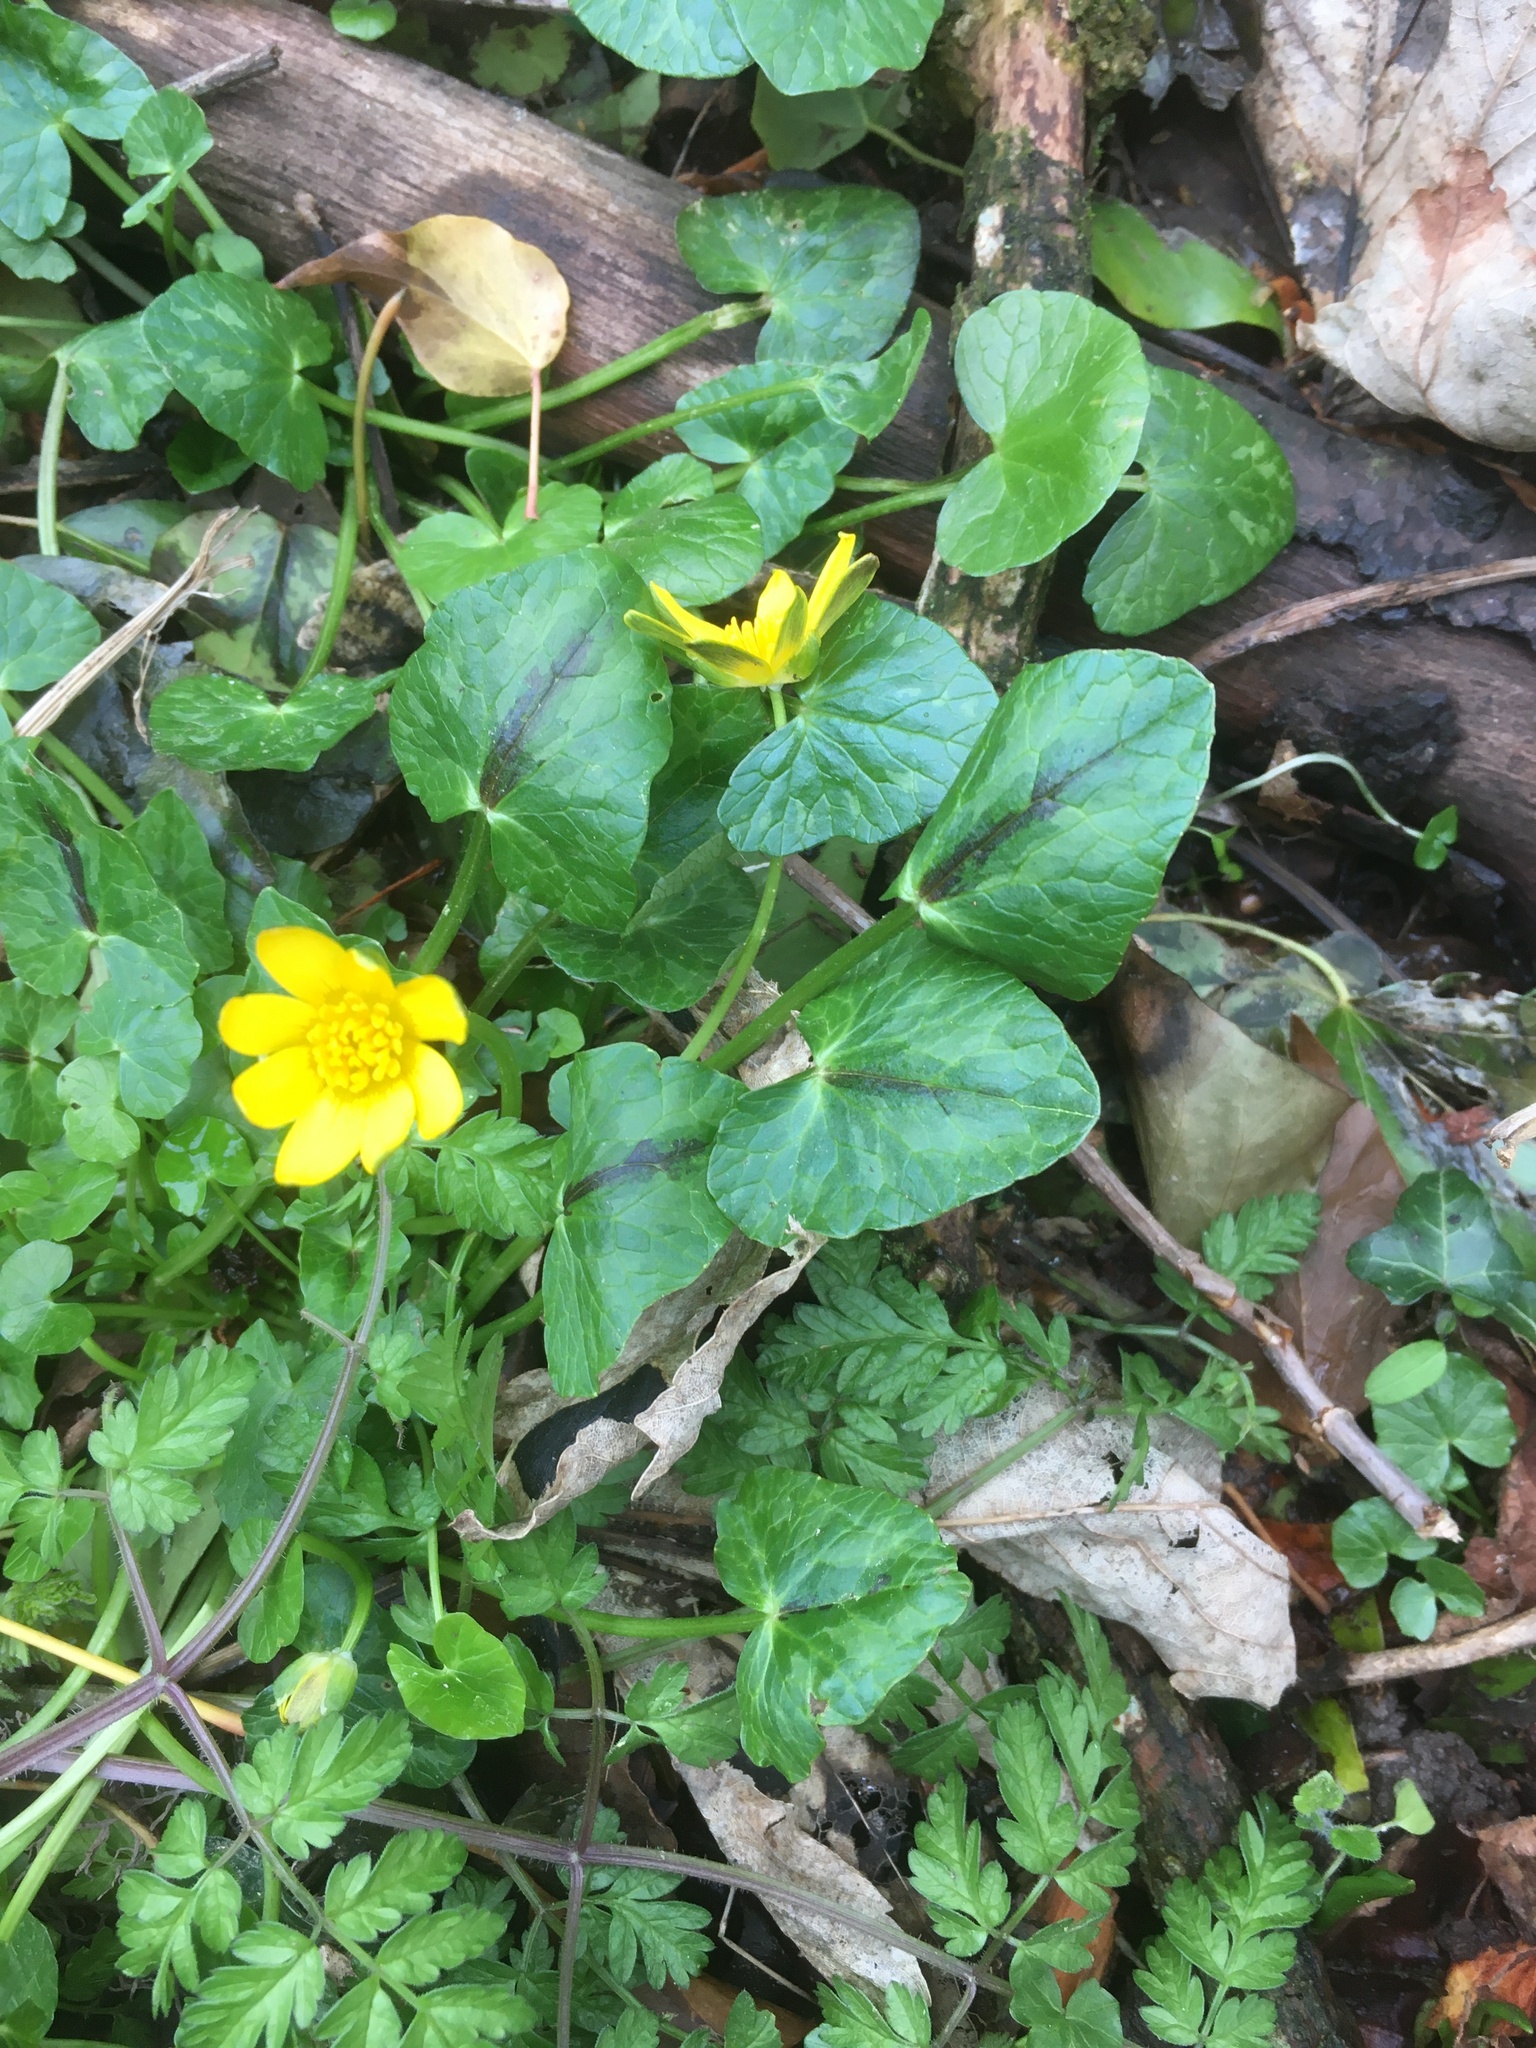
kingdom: Plantae
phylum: Tracheophyta
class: Magnoliopsida
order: Ranunculales
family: Ranunculaceae
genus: Ficaria
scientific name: Ficaria verna
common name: Lesser celandine
